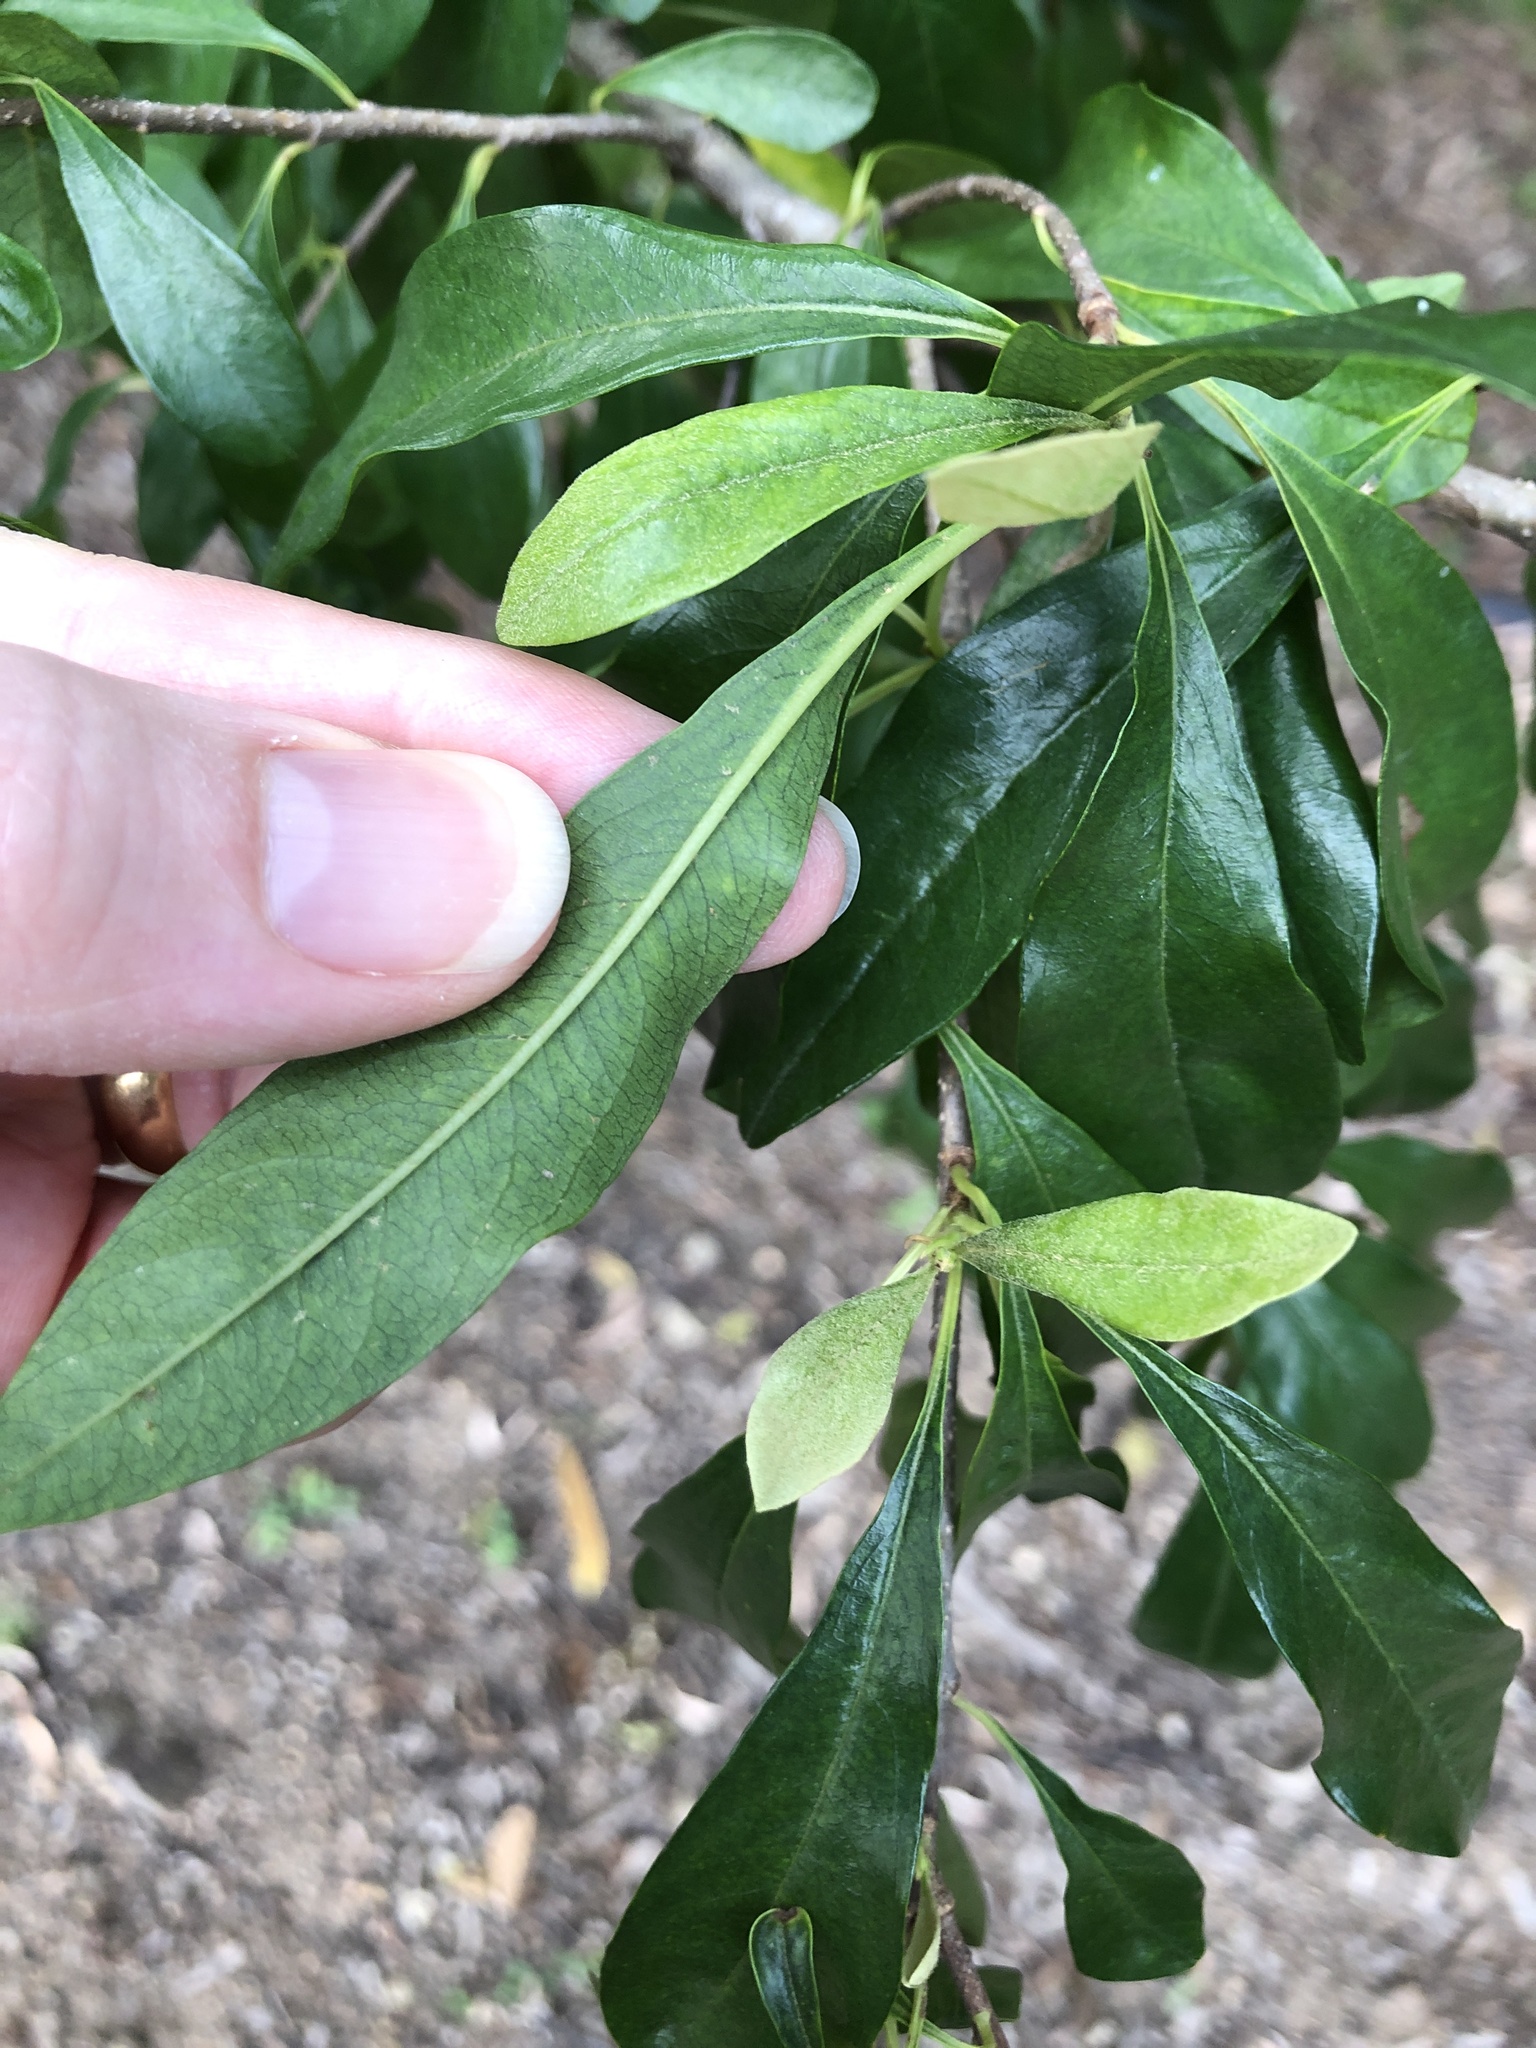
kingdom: Plantae
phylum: Tracheophyta
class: Magnoliopsida
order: Apiales
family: Pittosporaceae
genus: Bursaria
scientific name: Bursaria tenuifolia
